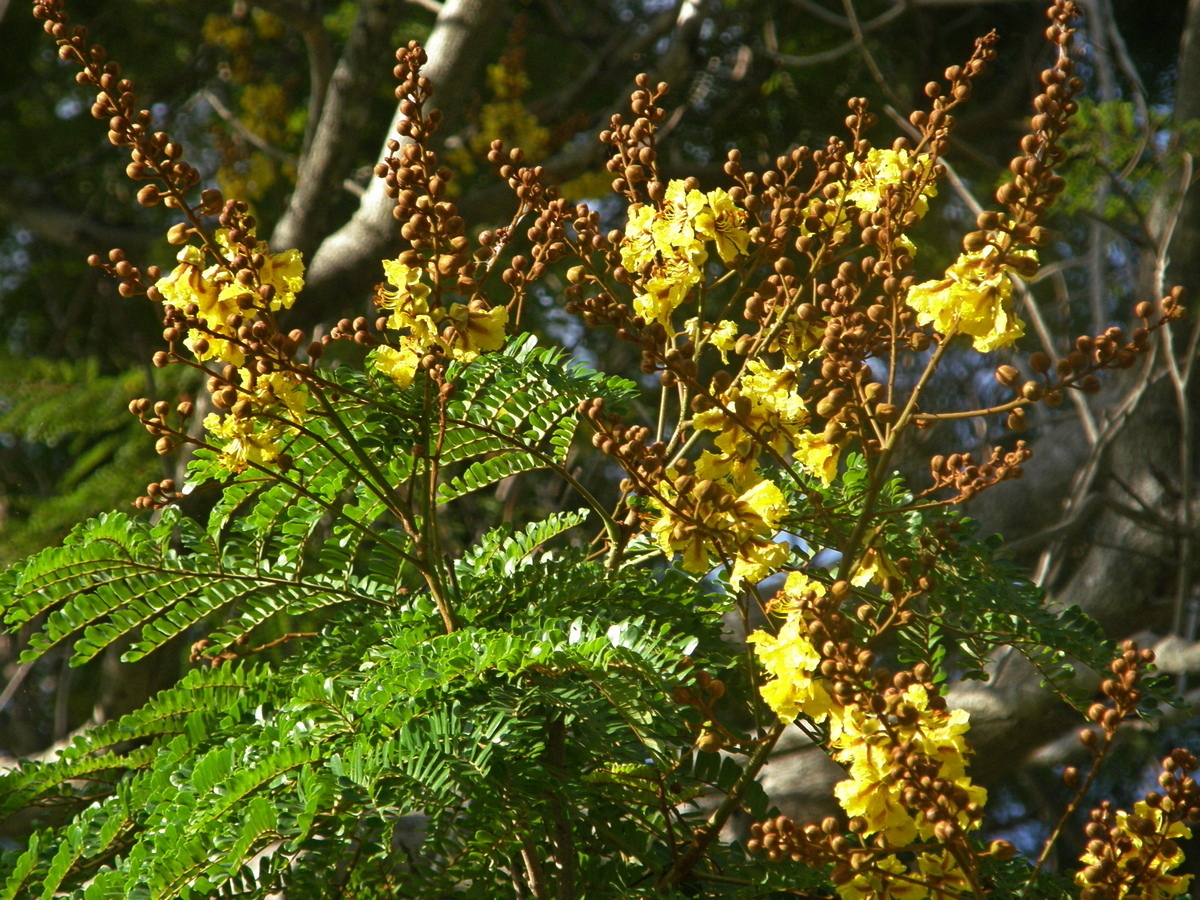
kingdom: Plantae
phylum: Tracheophyta
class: Magnoliopsida
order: Fabales
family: Fabaceae
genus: Peltophorum
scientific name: Peltophorum pterocarpum
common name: Yellow flame
